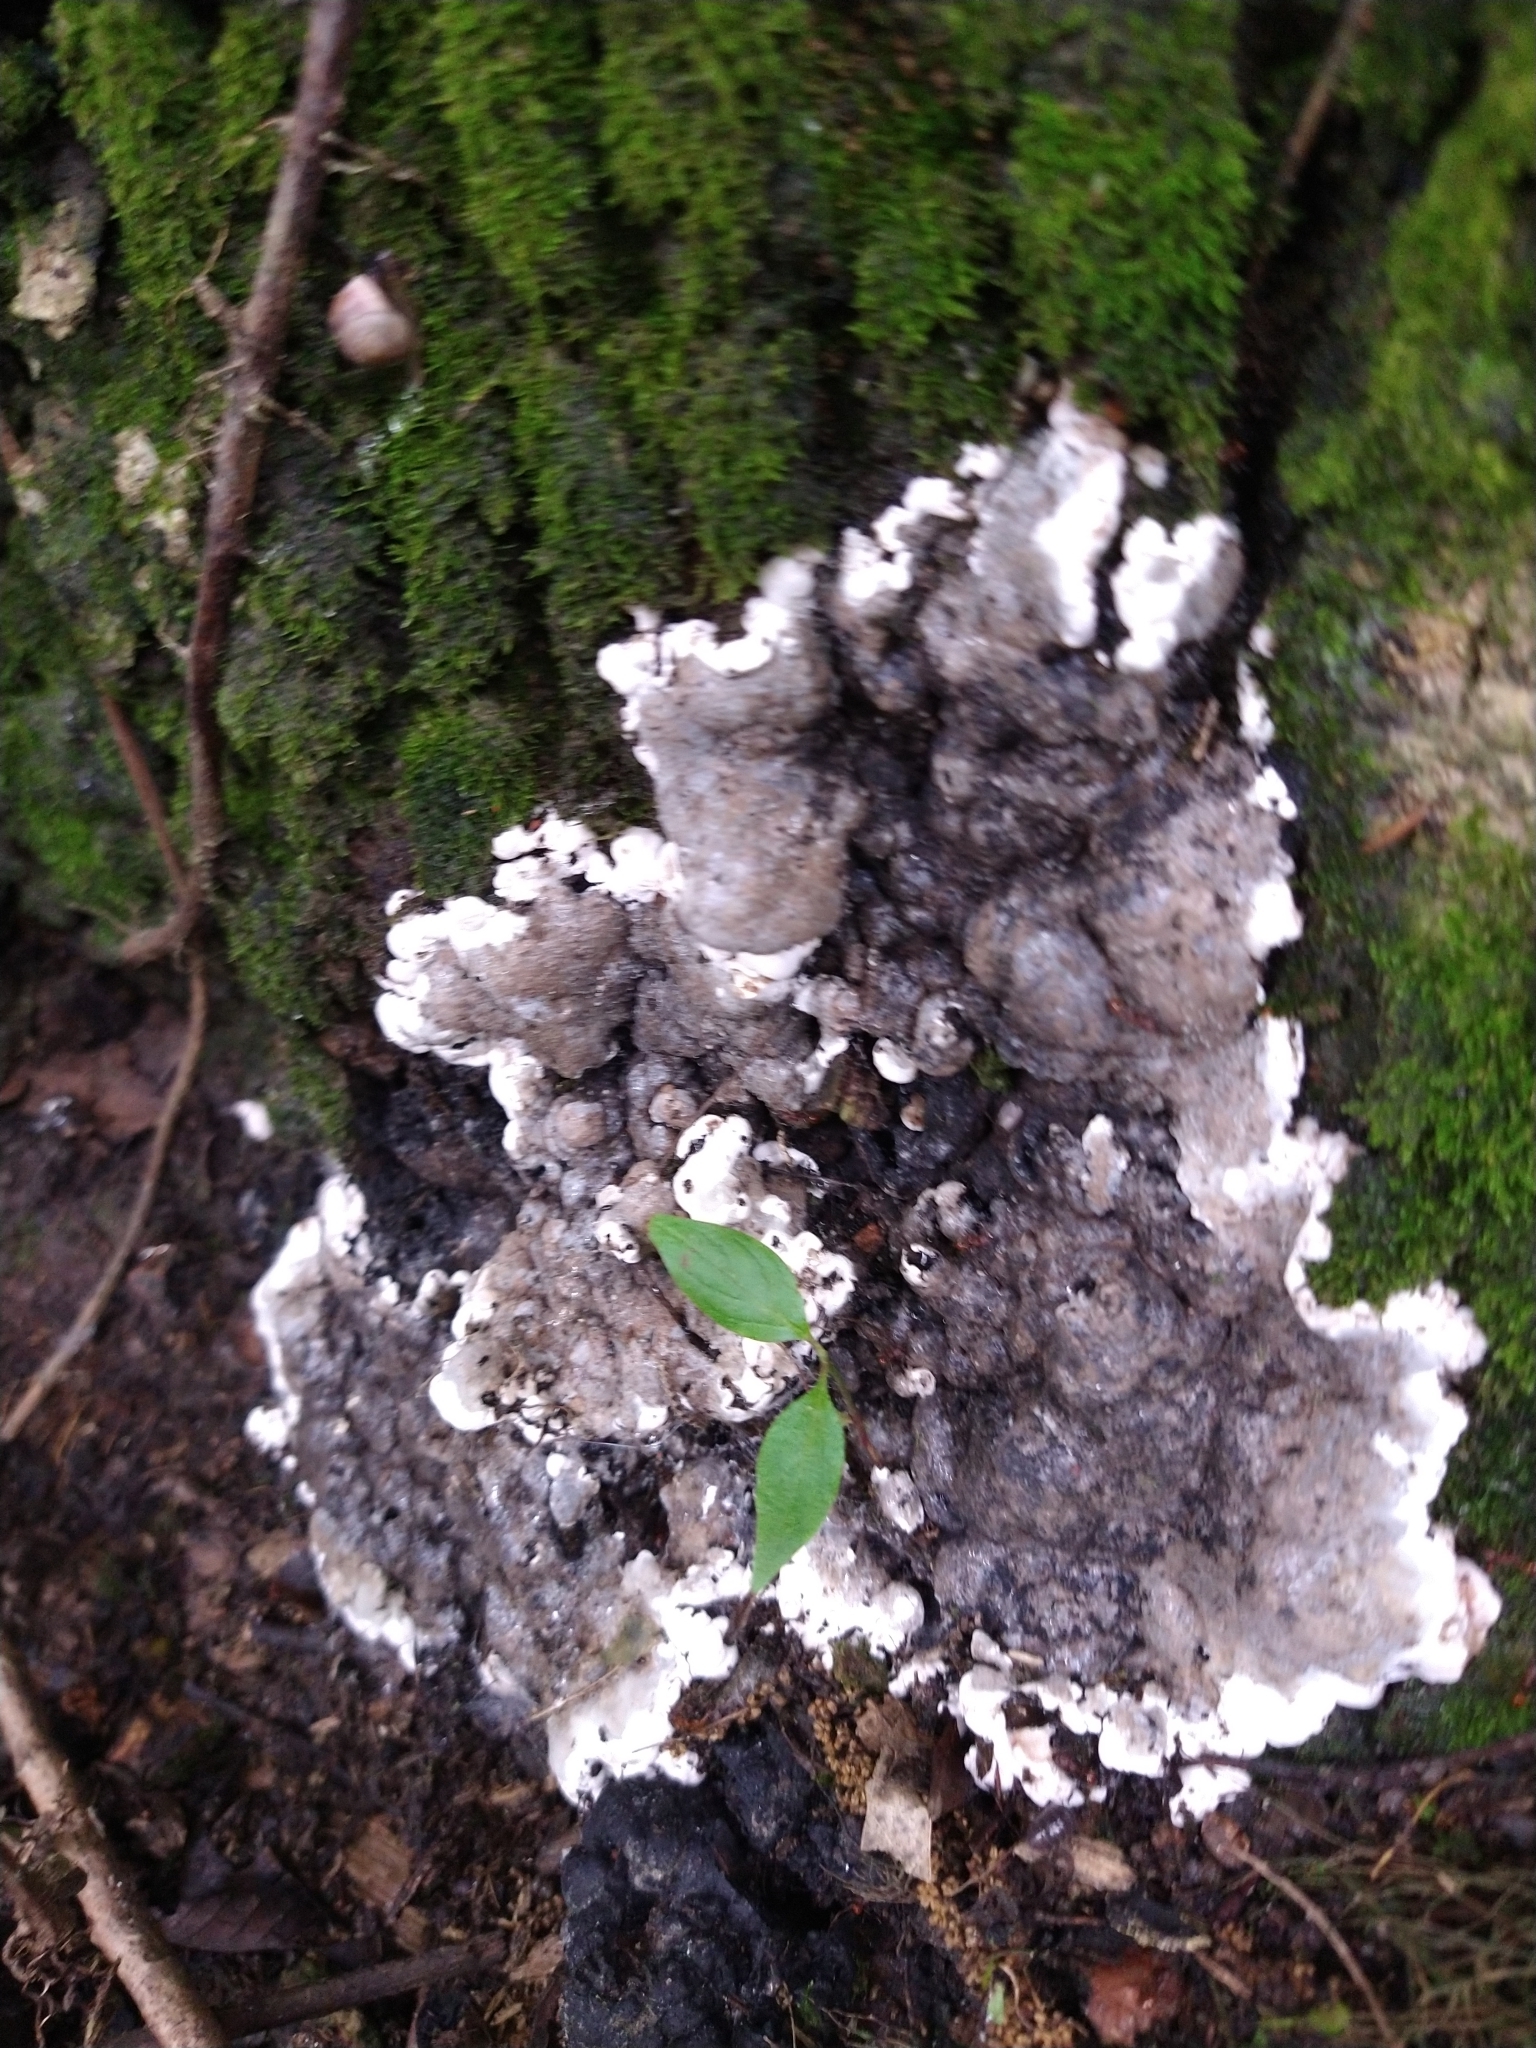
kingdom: Fungi
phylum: Ascomycota
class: Sordariomycetes
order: Xylariales
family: Xylariaceae
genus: Kretzschmaria
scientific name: Kretzschmaria deusta
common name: Brittle cinder
